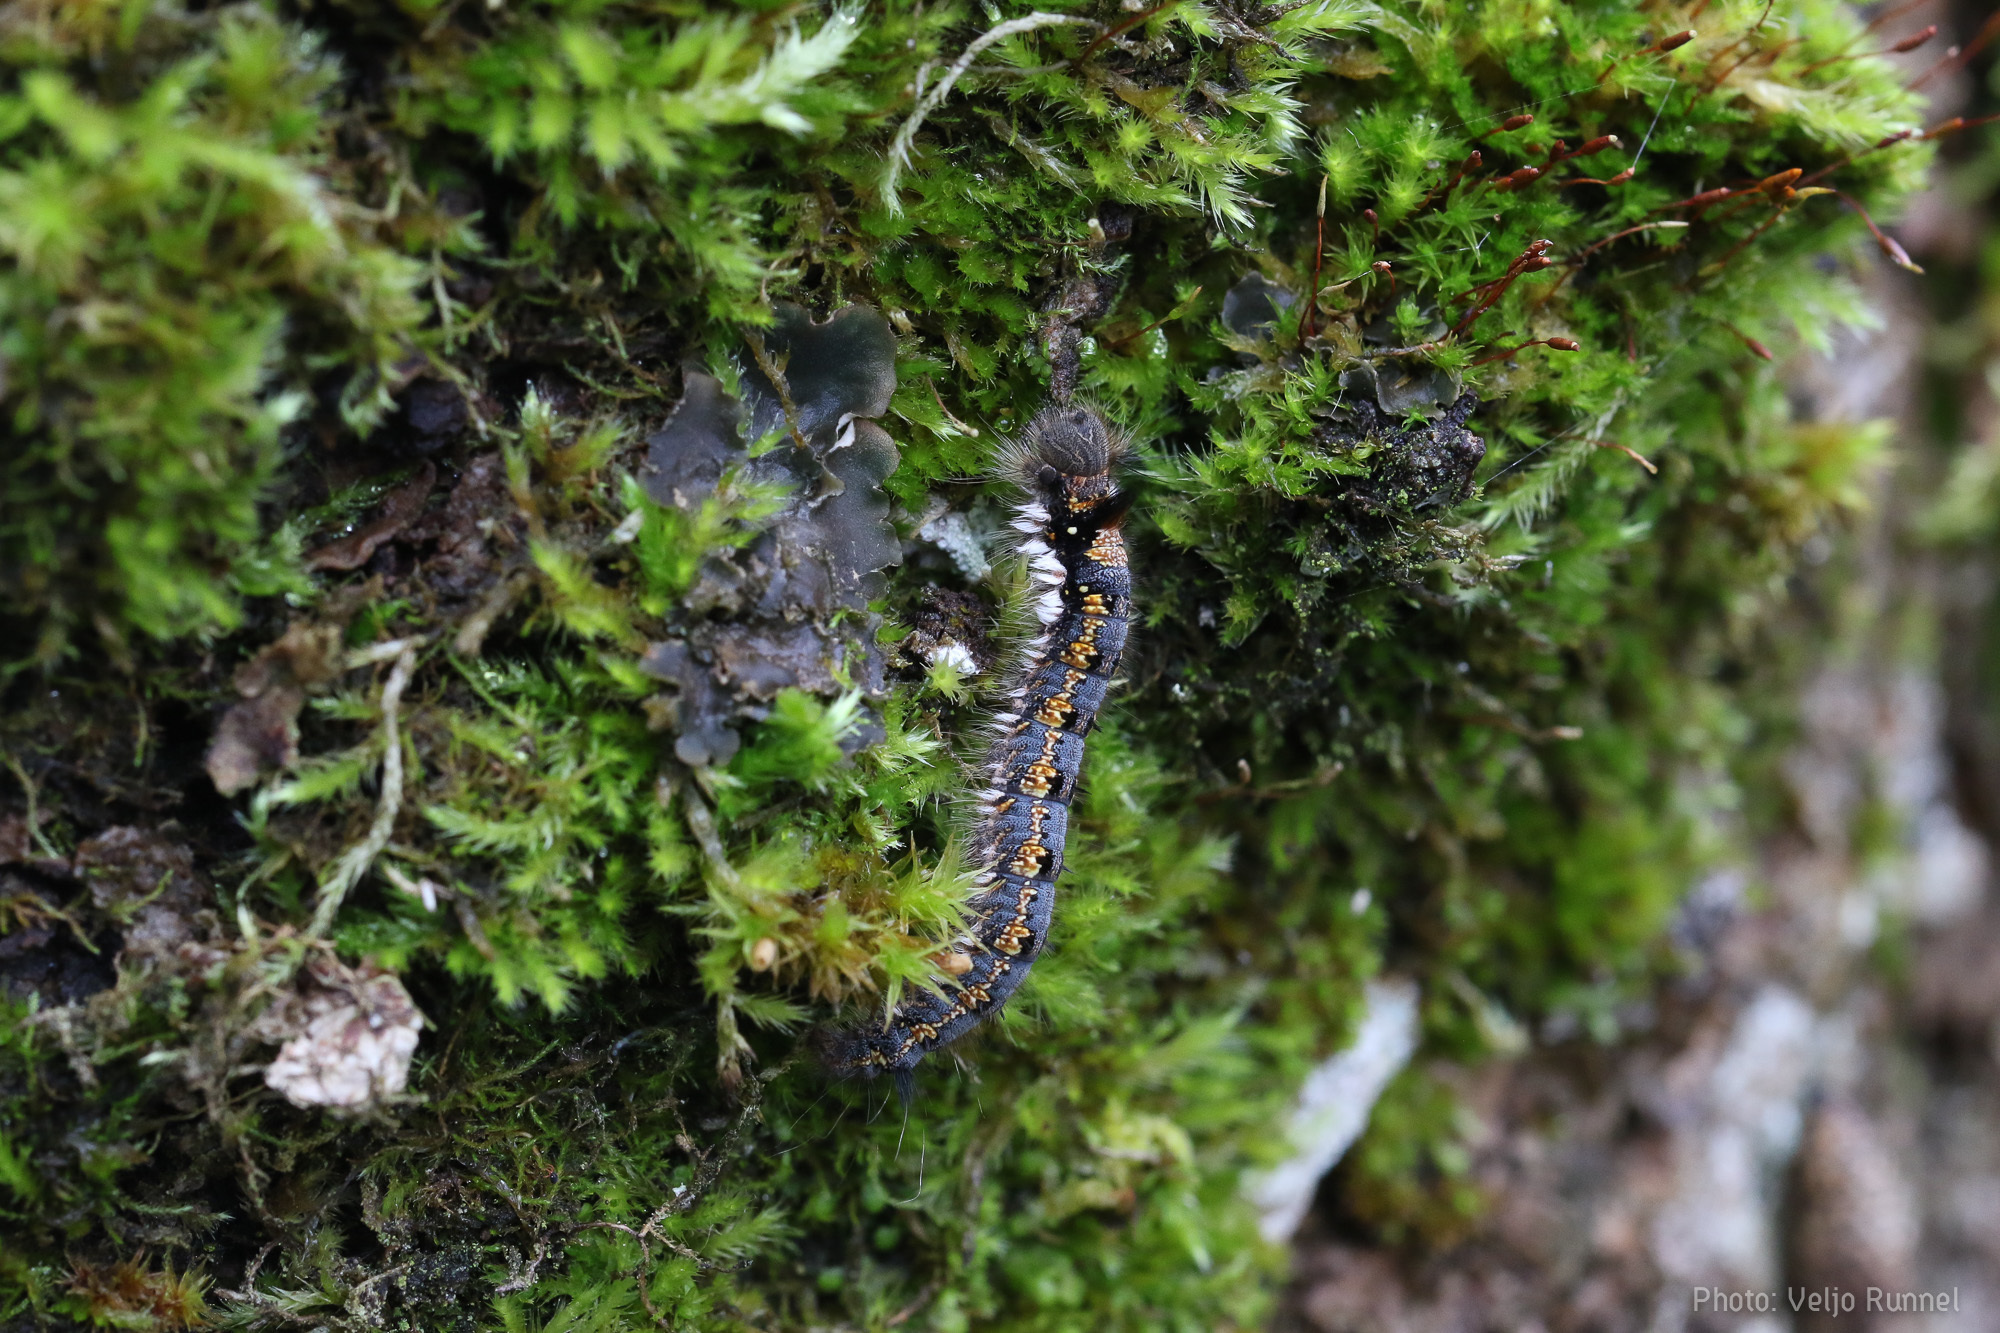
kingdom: Animalia
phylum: Arthropoda
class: Insecta
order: Lepidoptera
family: Lasiocampidae
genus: Euthrix
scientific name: Euthrix potatoria
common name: Drinker
